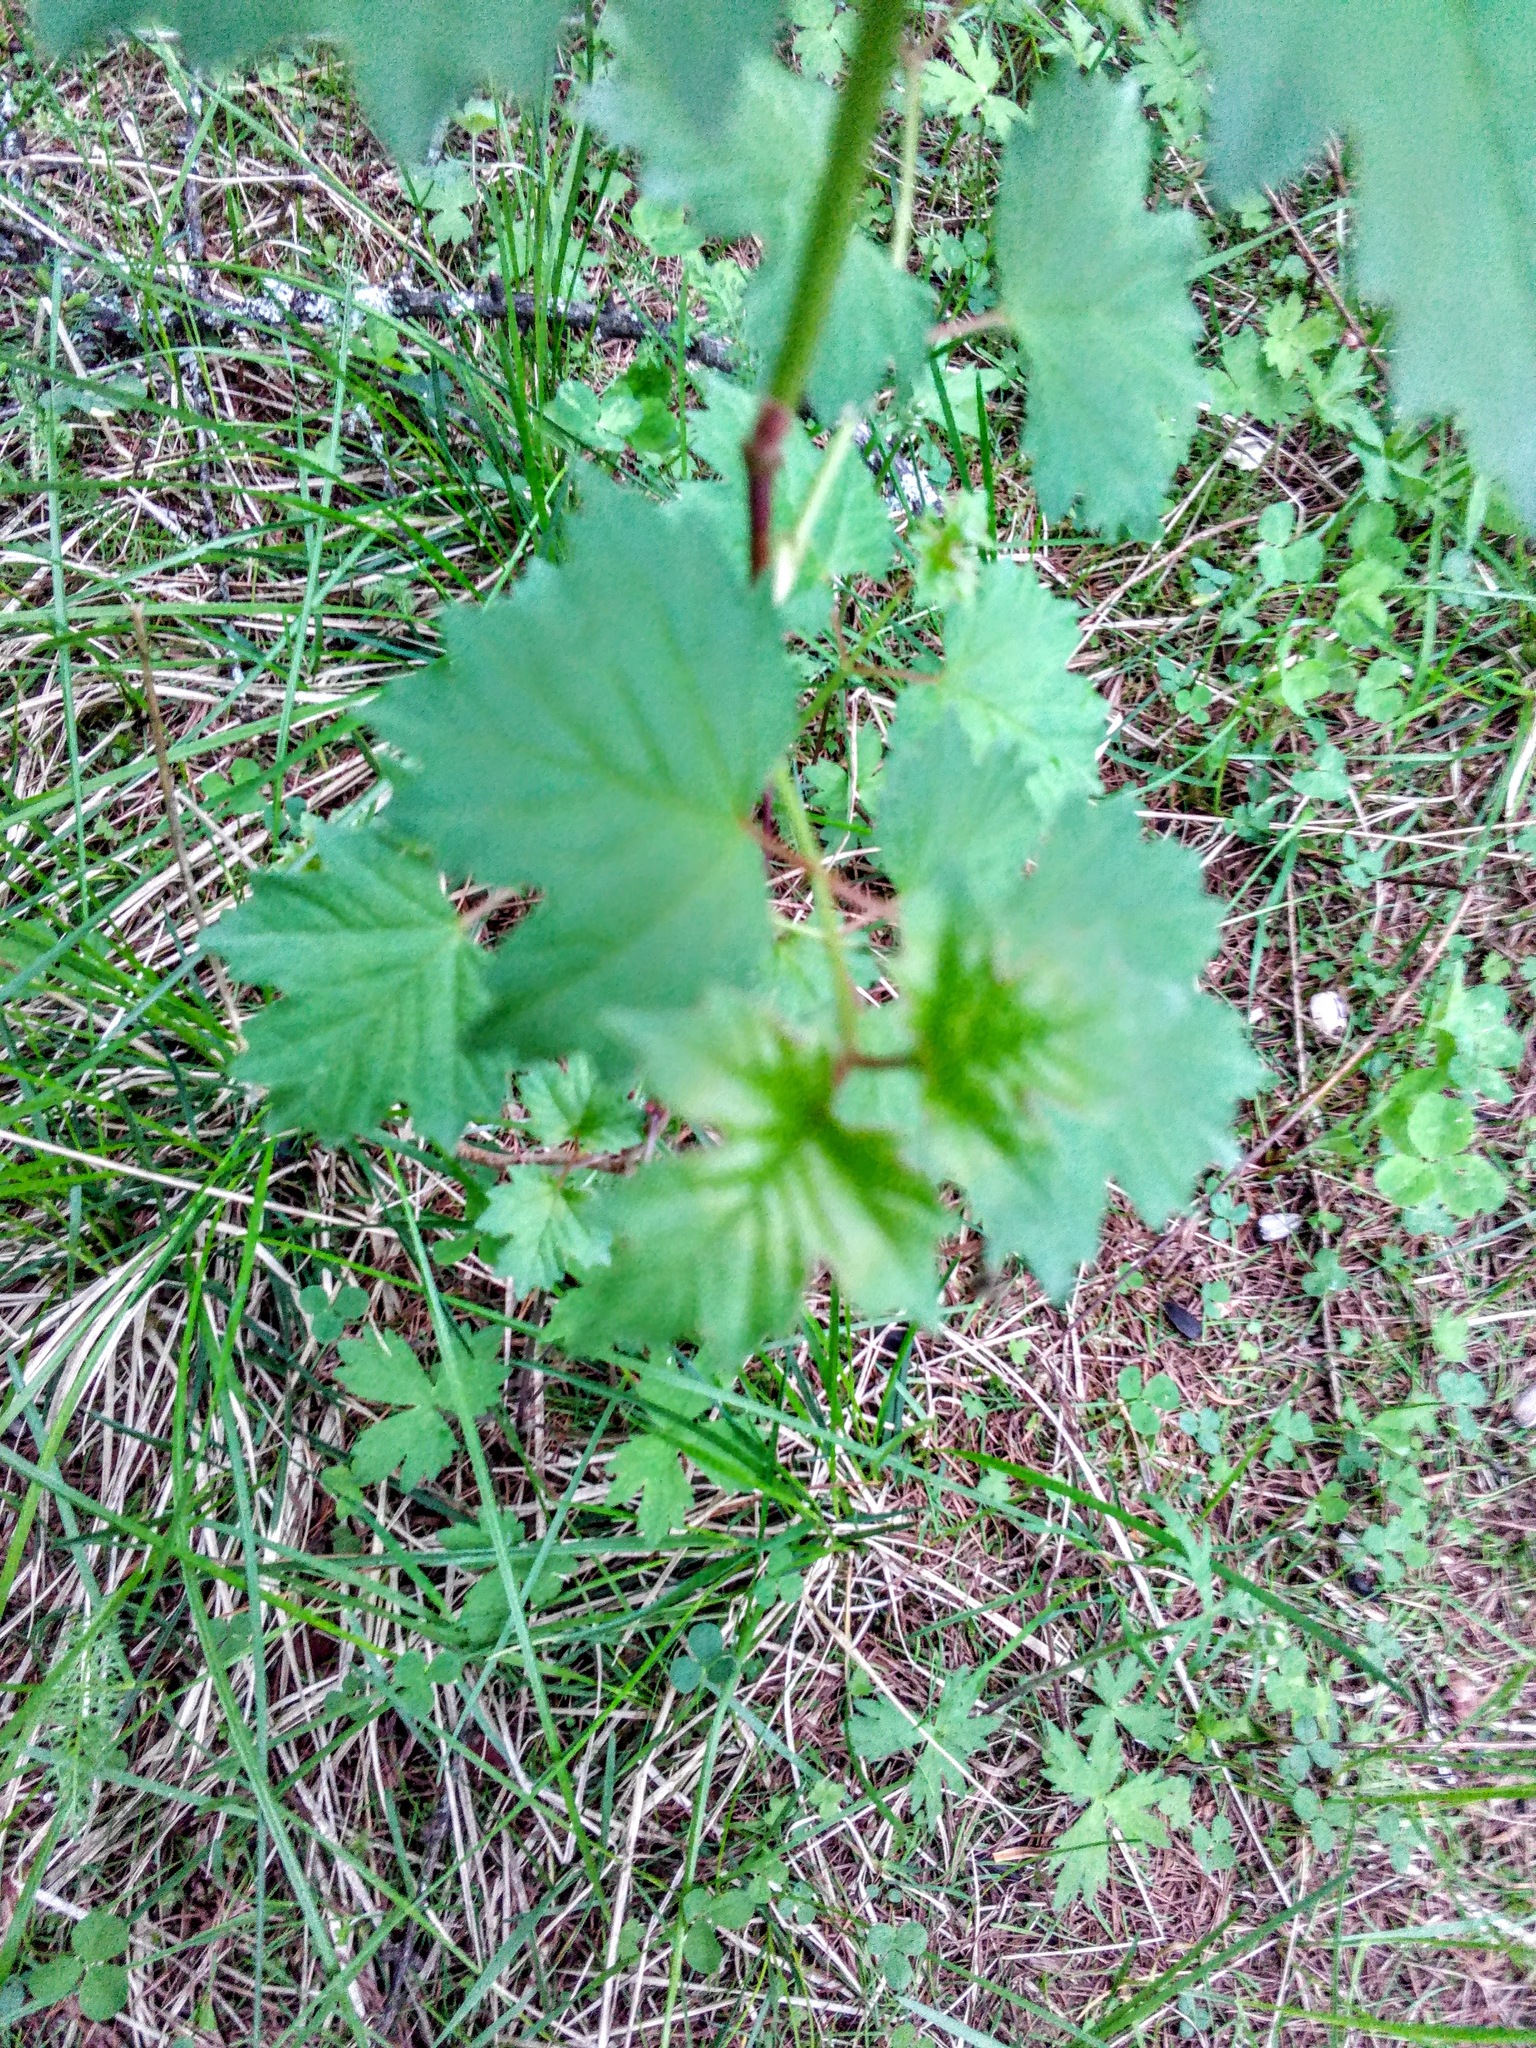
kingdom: Plantae
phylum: Tracheophyta
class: Magnoliopsida
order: Dipsacales
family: Viburnaceae
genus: Viburnum
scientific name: Viburnum opulus
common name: Guelder-rose
